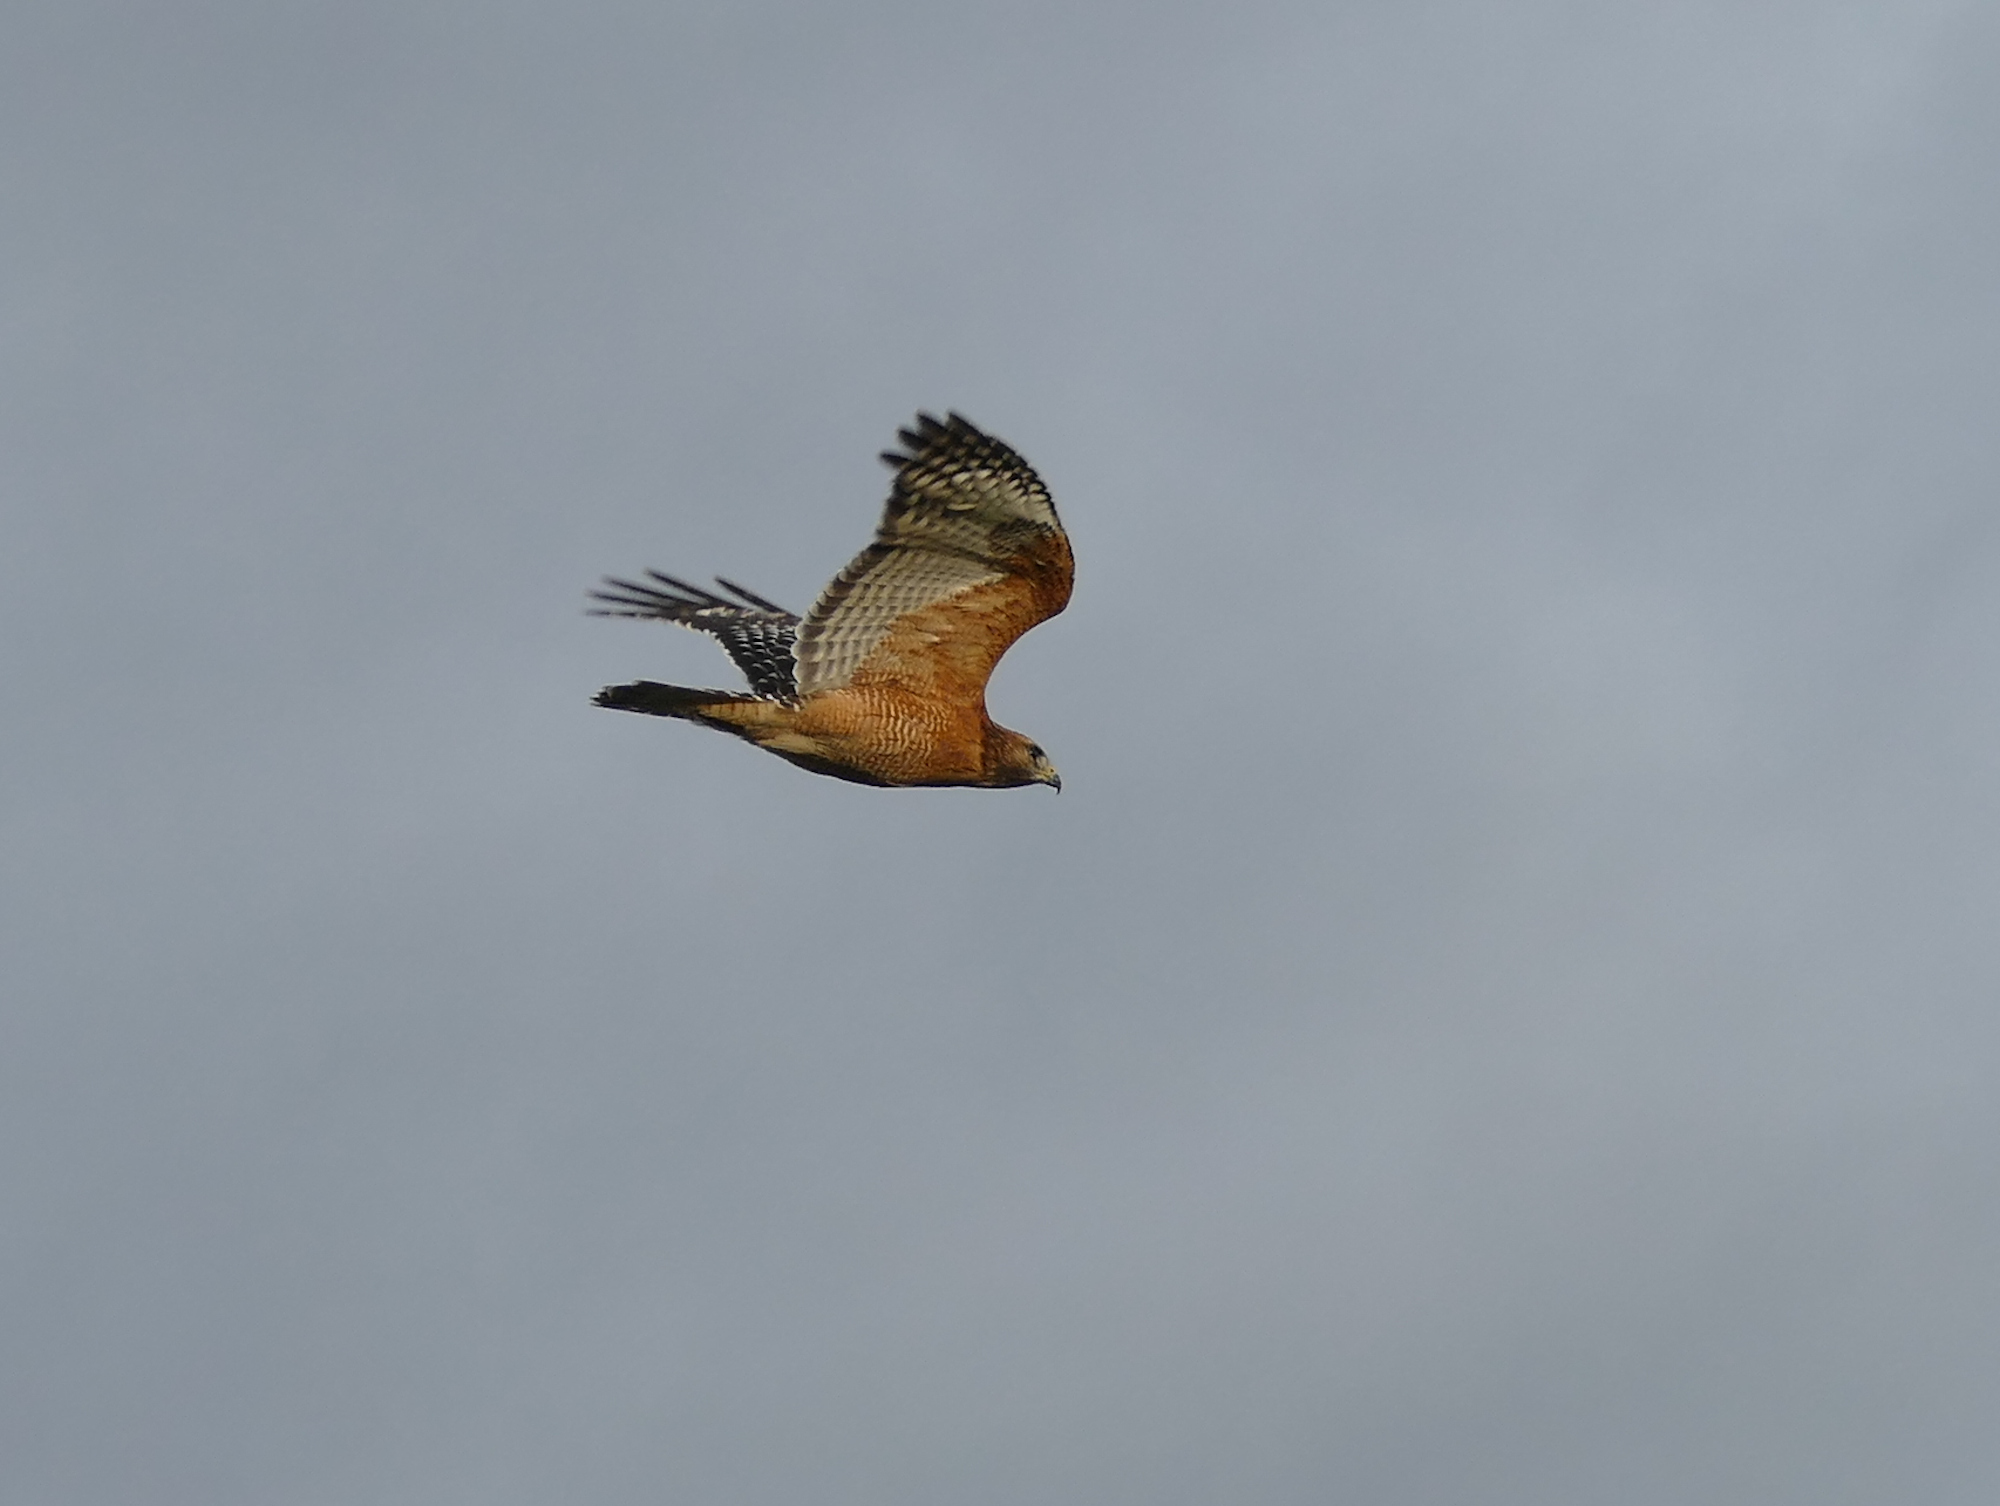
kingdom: Animalia
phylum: Chordata
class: Aves
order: Accipitriformes
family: Accipitridae
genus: Buteo
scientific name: Buteo lineatus
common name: Red-shouldered hawk
